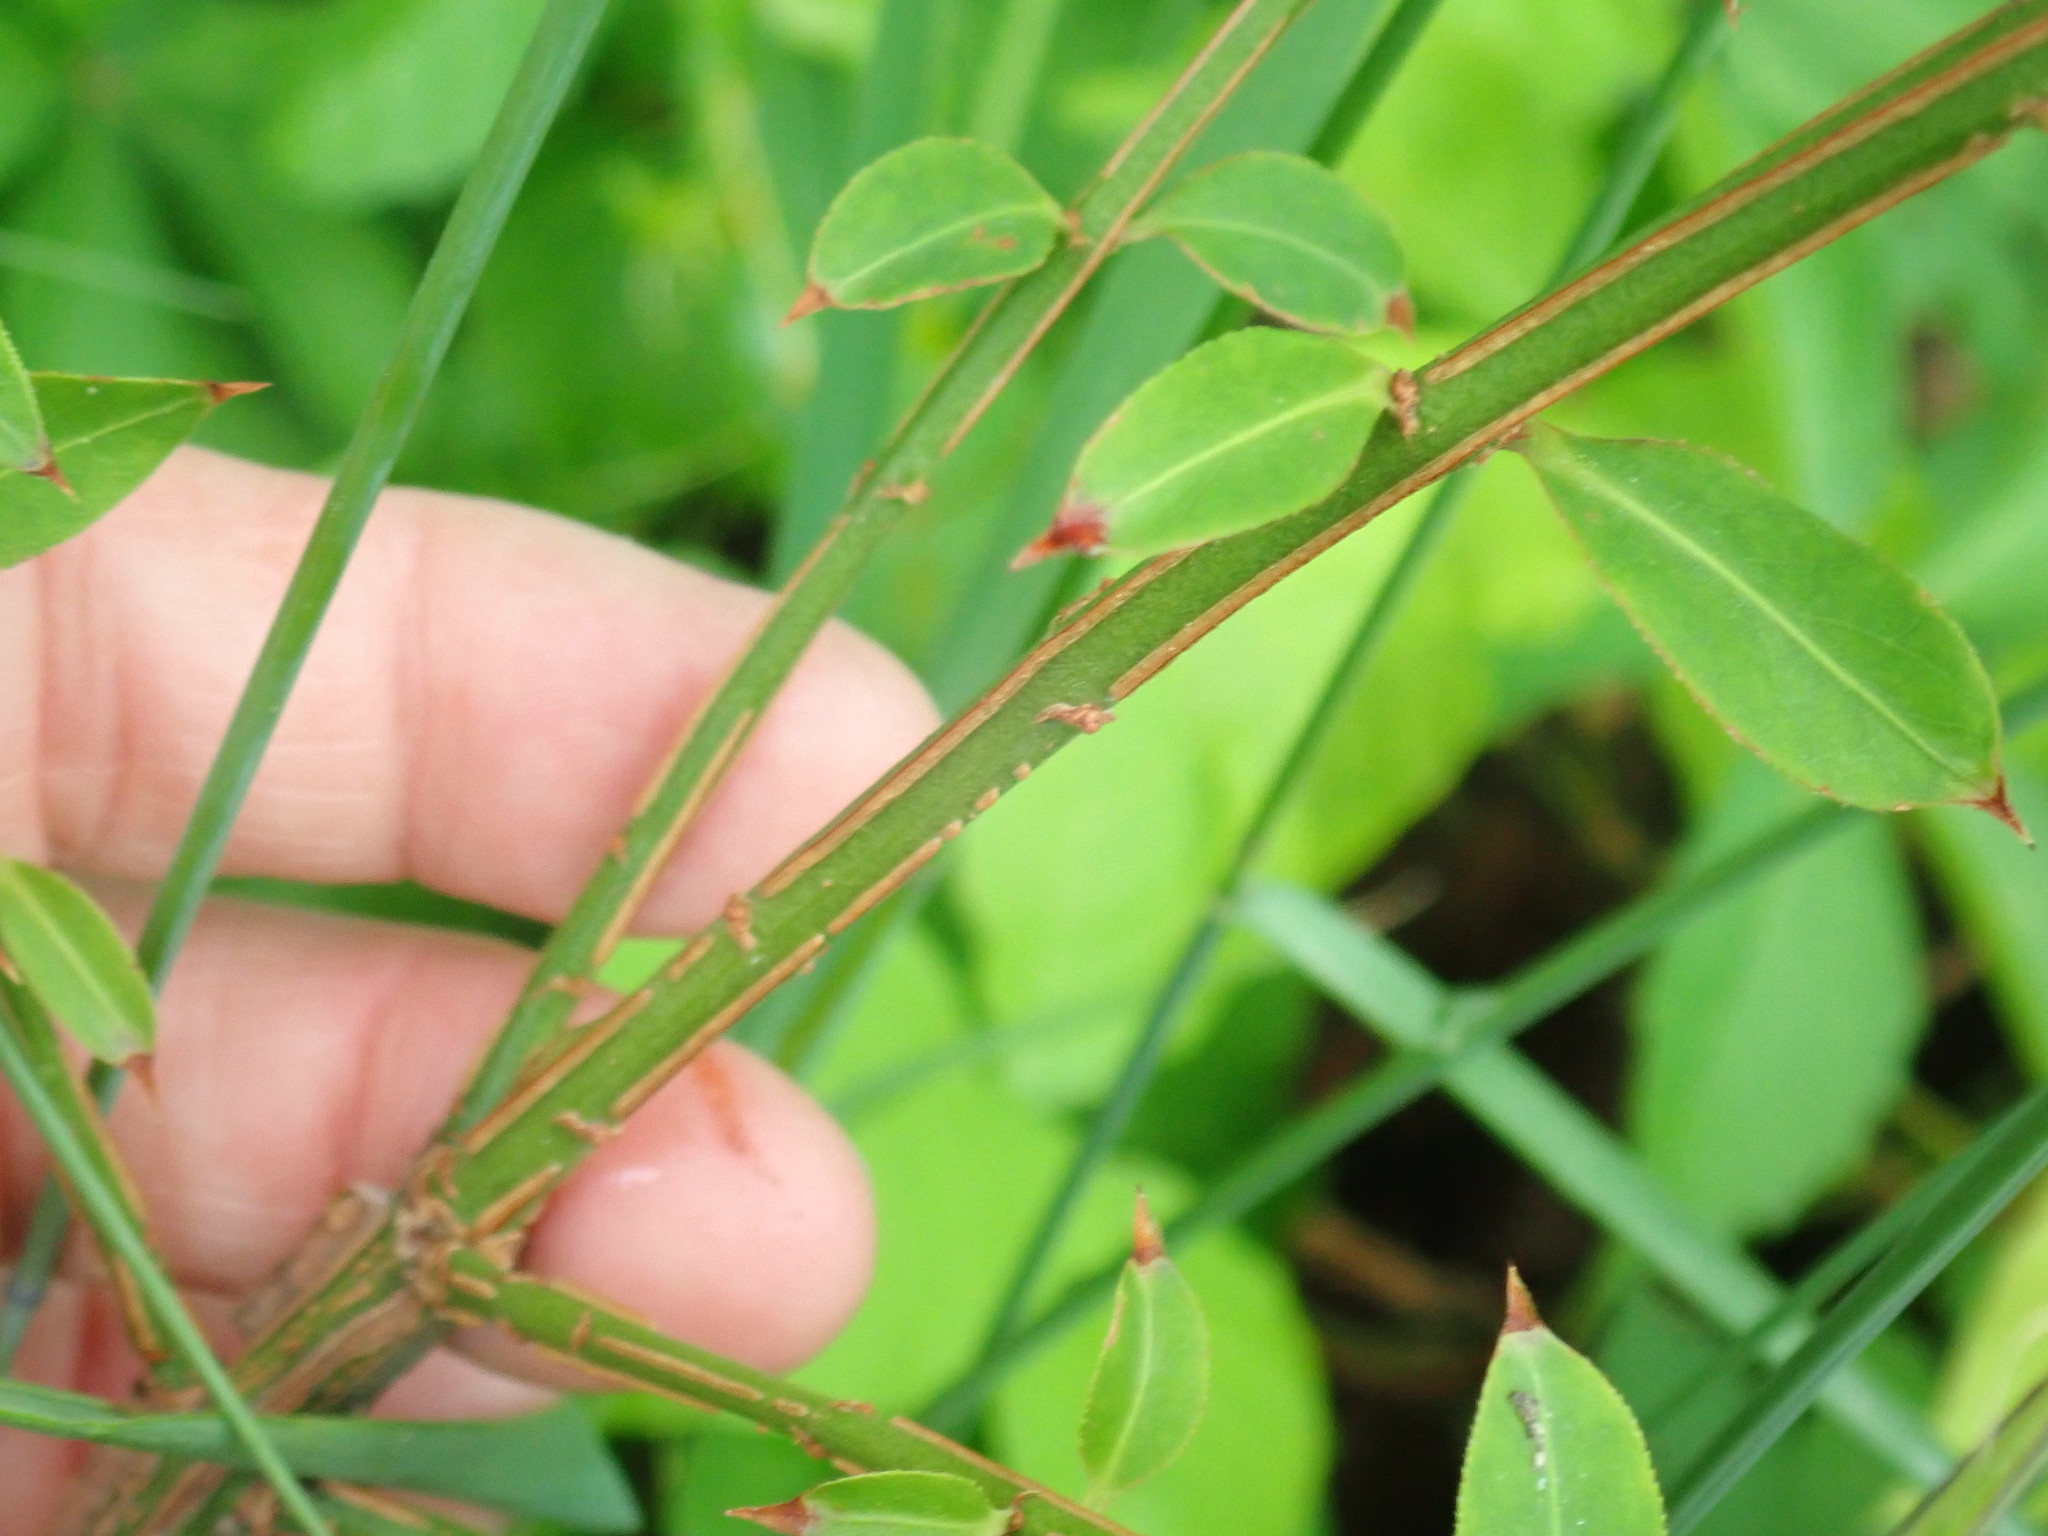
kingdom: Plantae
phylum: Tracheophyta
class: Magnoliopsida
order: Celastrales
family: Celastraceae
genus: Euonymus
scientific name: Euonymus alatus
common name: Winged euonymus
